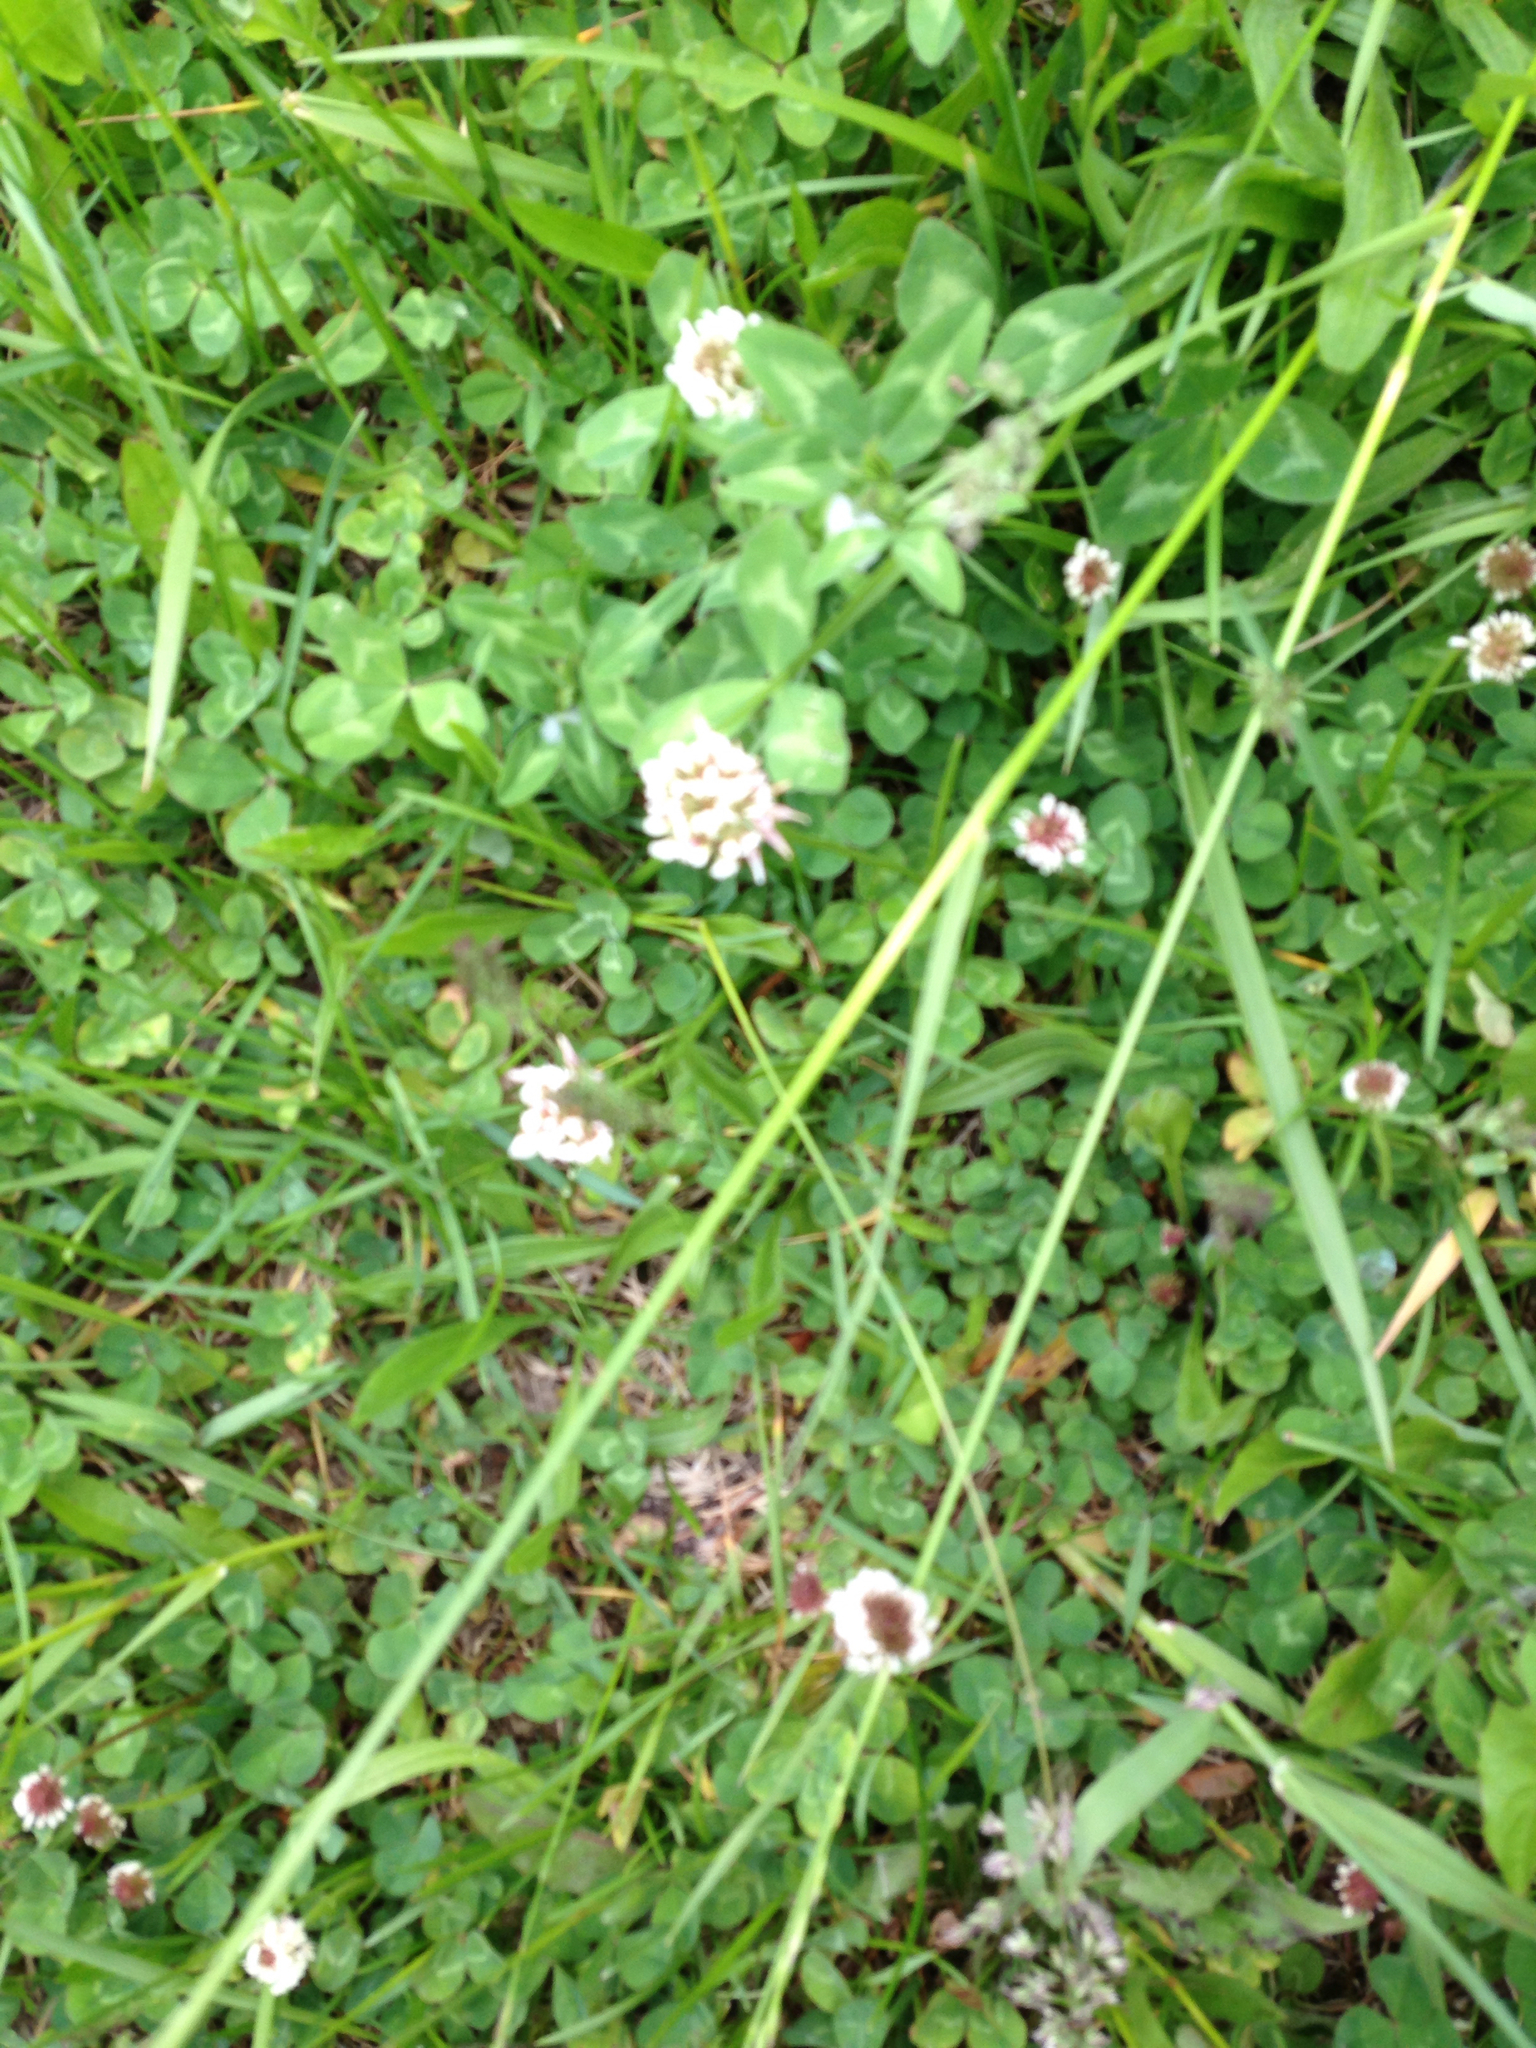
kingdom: Plantae
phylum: Tracheophyta
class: Magnoliopsida
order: Fabales
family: Fabaceae
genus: Trifolium
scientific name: Trifolium repens
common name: White clover
